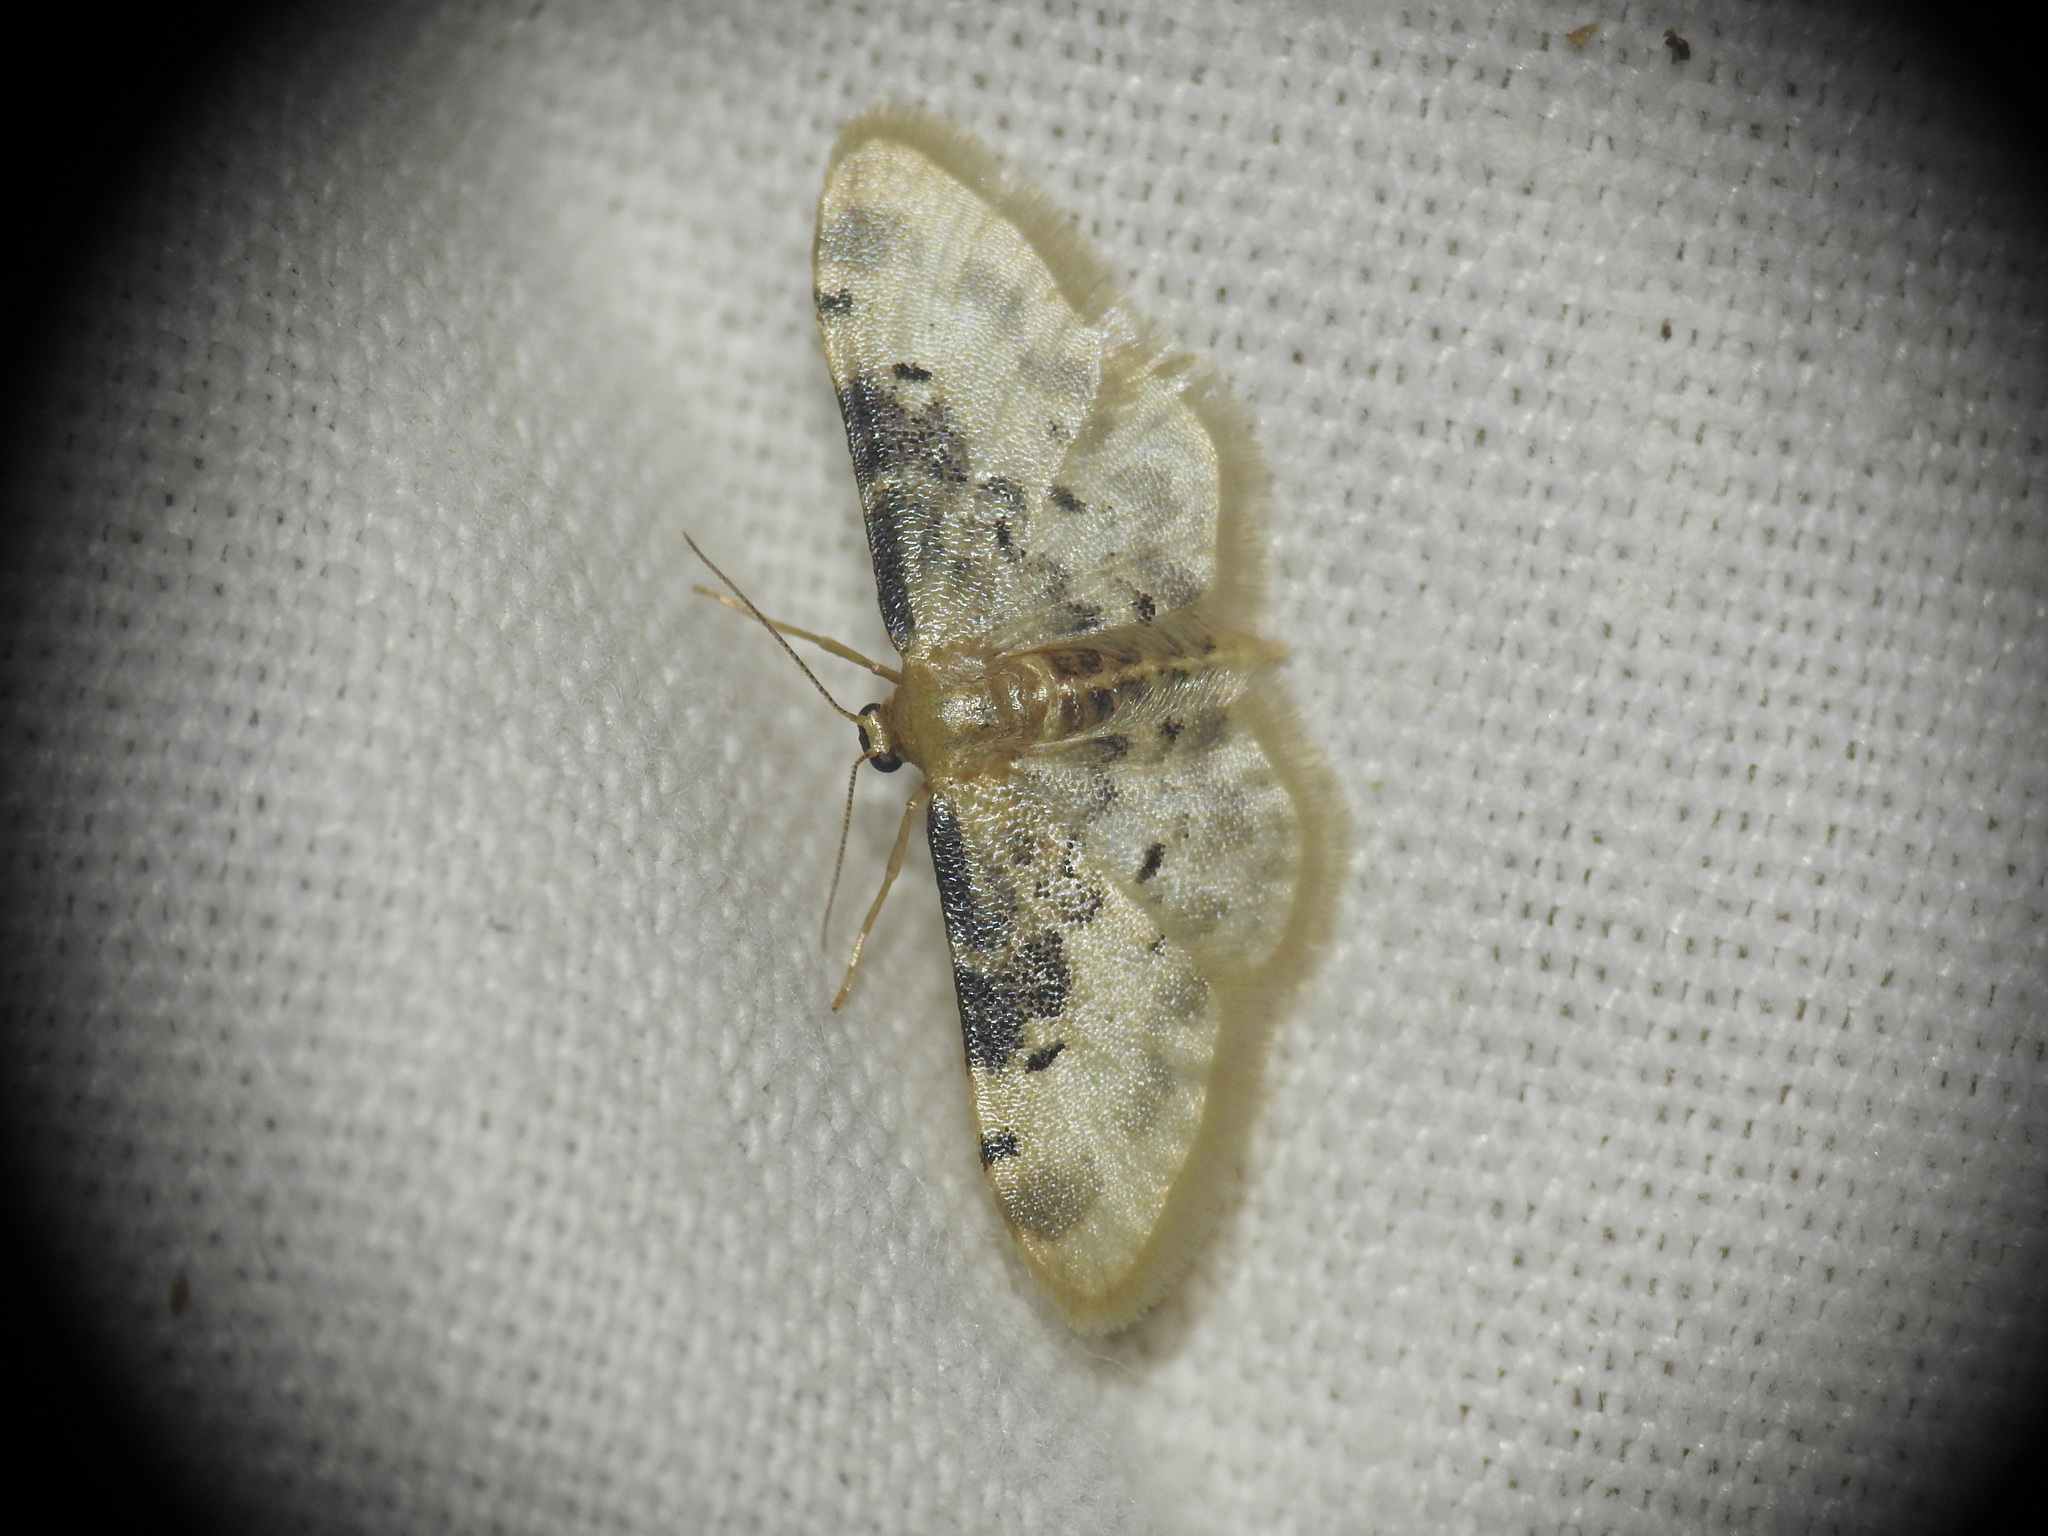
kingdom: Animalia
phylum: Arthropoda
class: Insecta
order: Lepidoptera
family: Geometridae
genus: Idaea
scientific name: Idaea filicata
